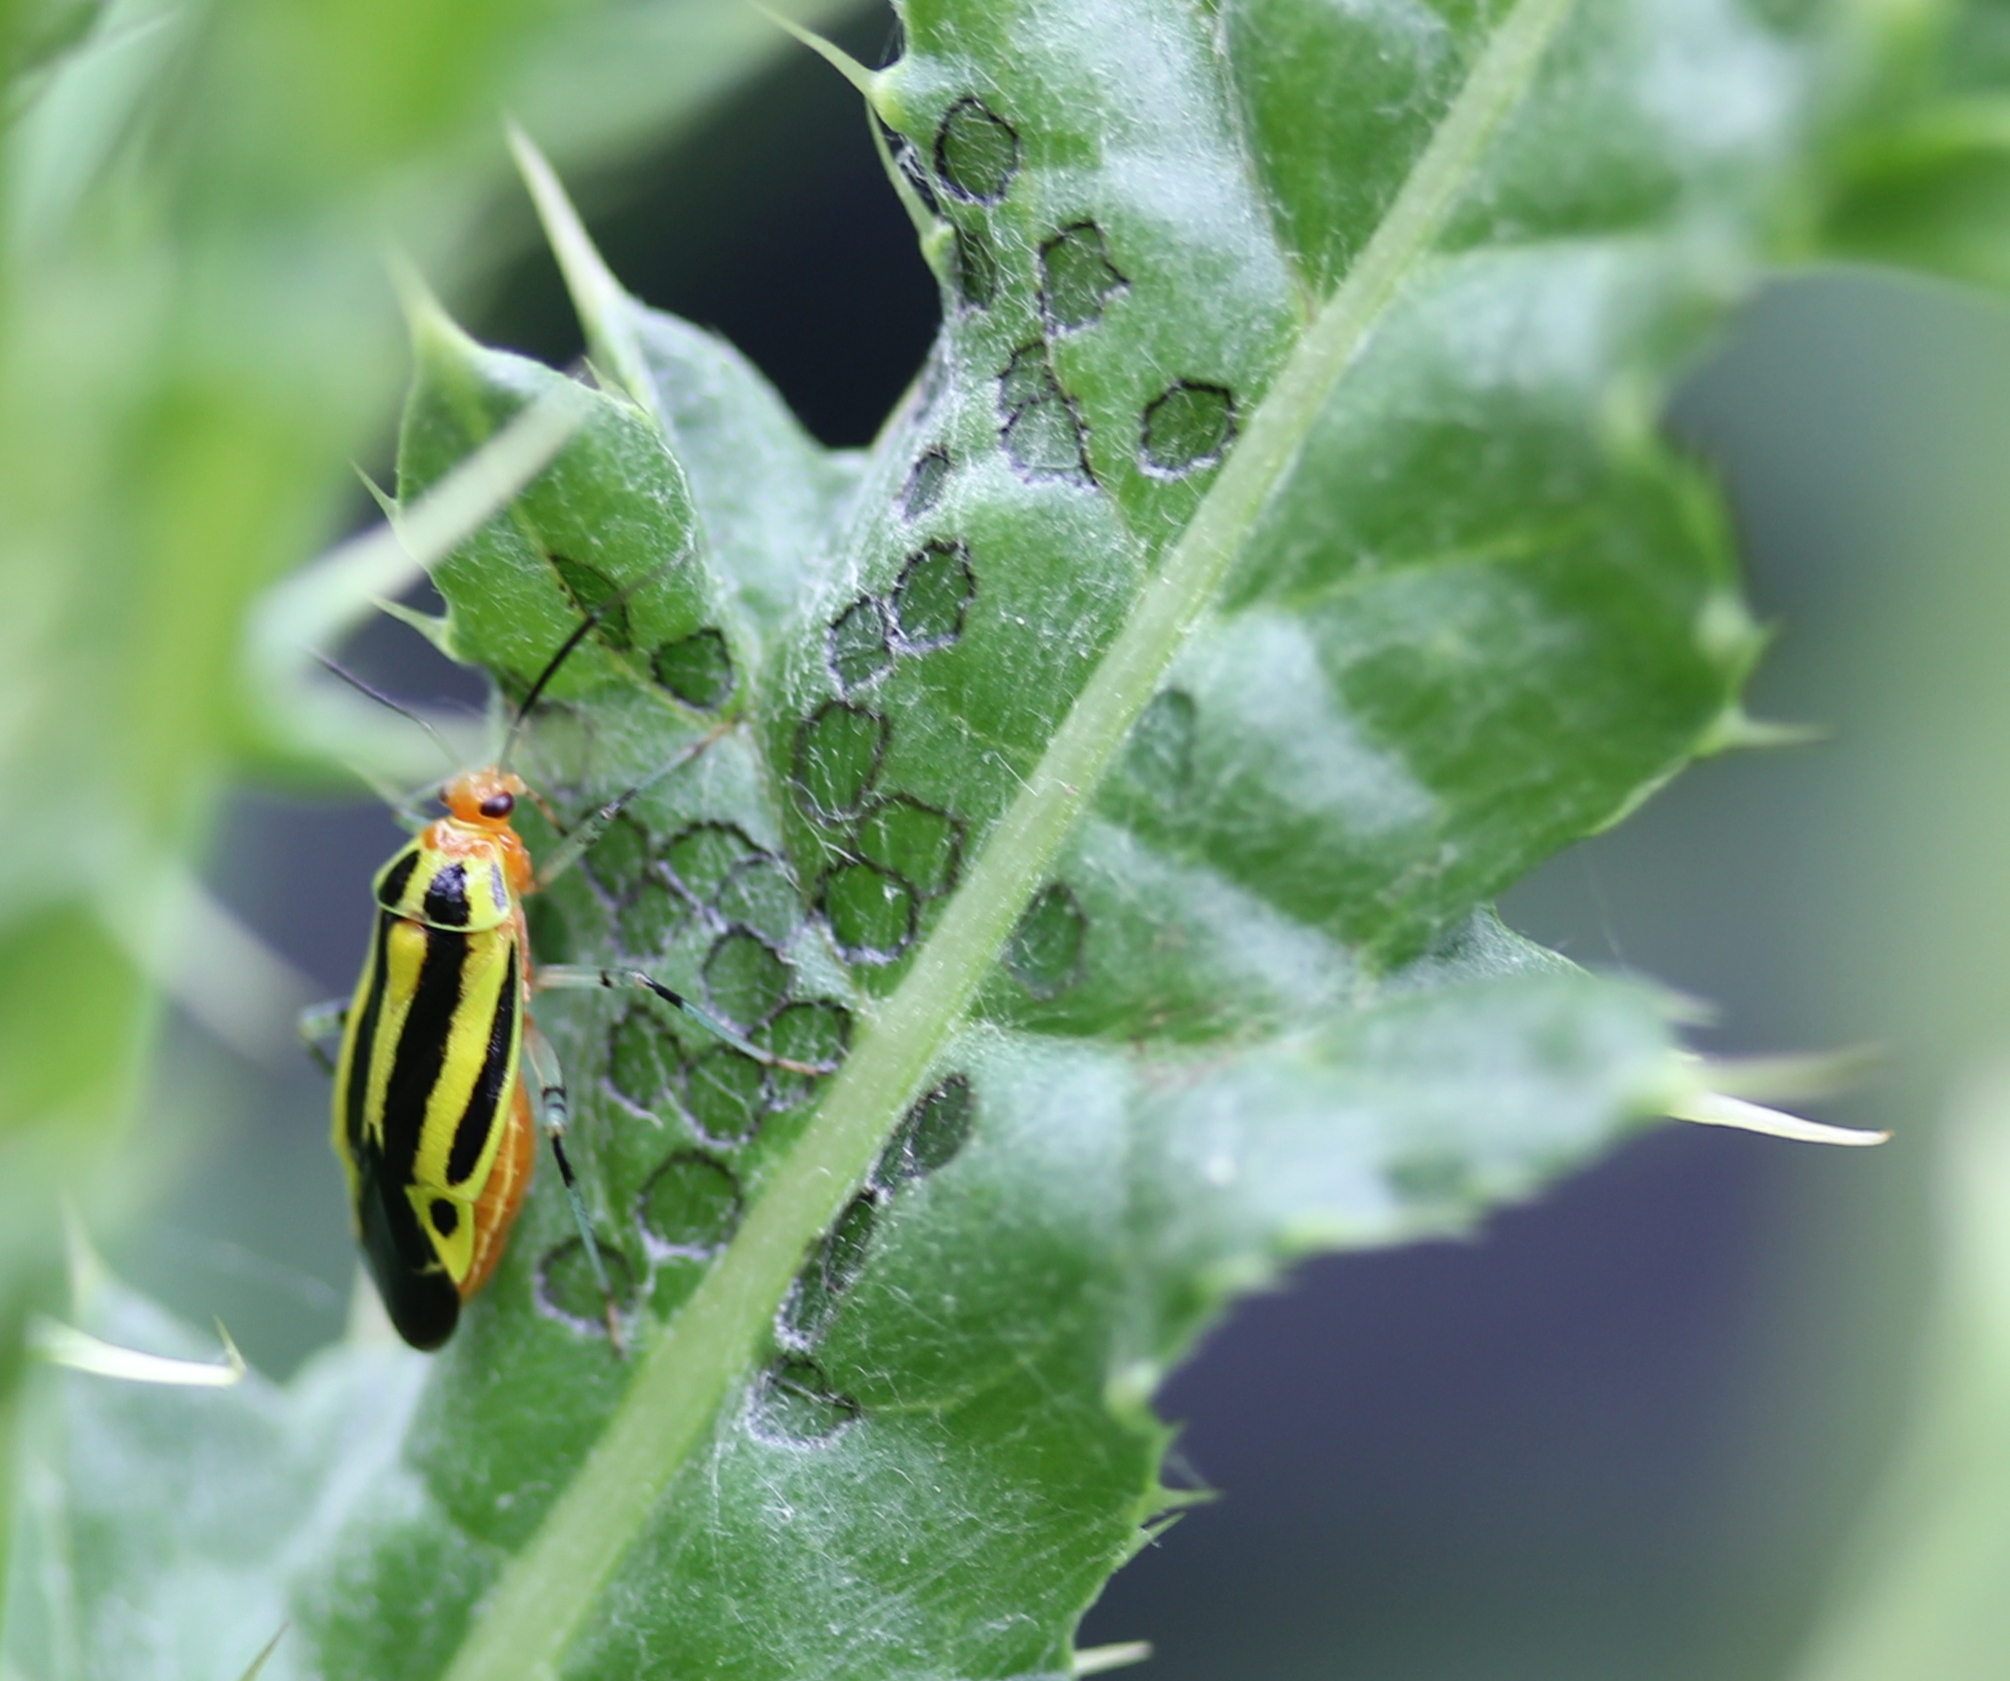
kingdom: Animalia
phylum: Arthropoda
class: Insecta
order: Hemiptera
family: Miridae
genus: Poecilocapsus
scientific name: Poecilocapsus lineatus
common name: Four-lined plant bug
